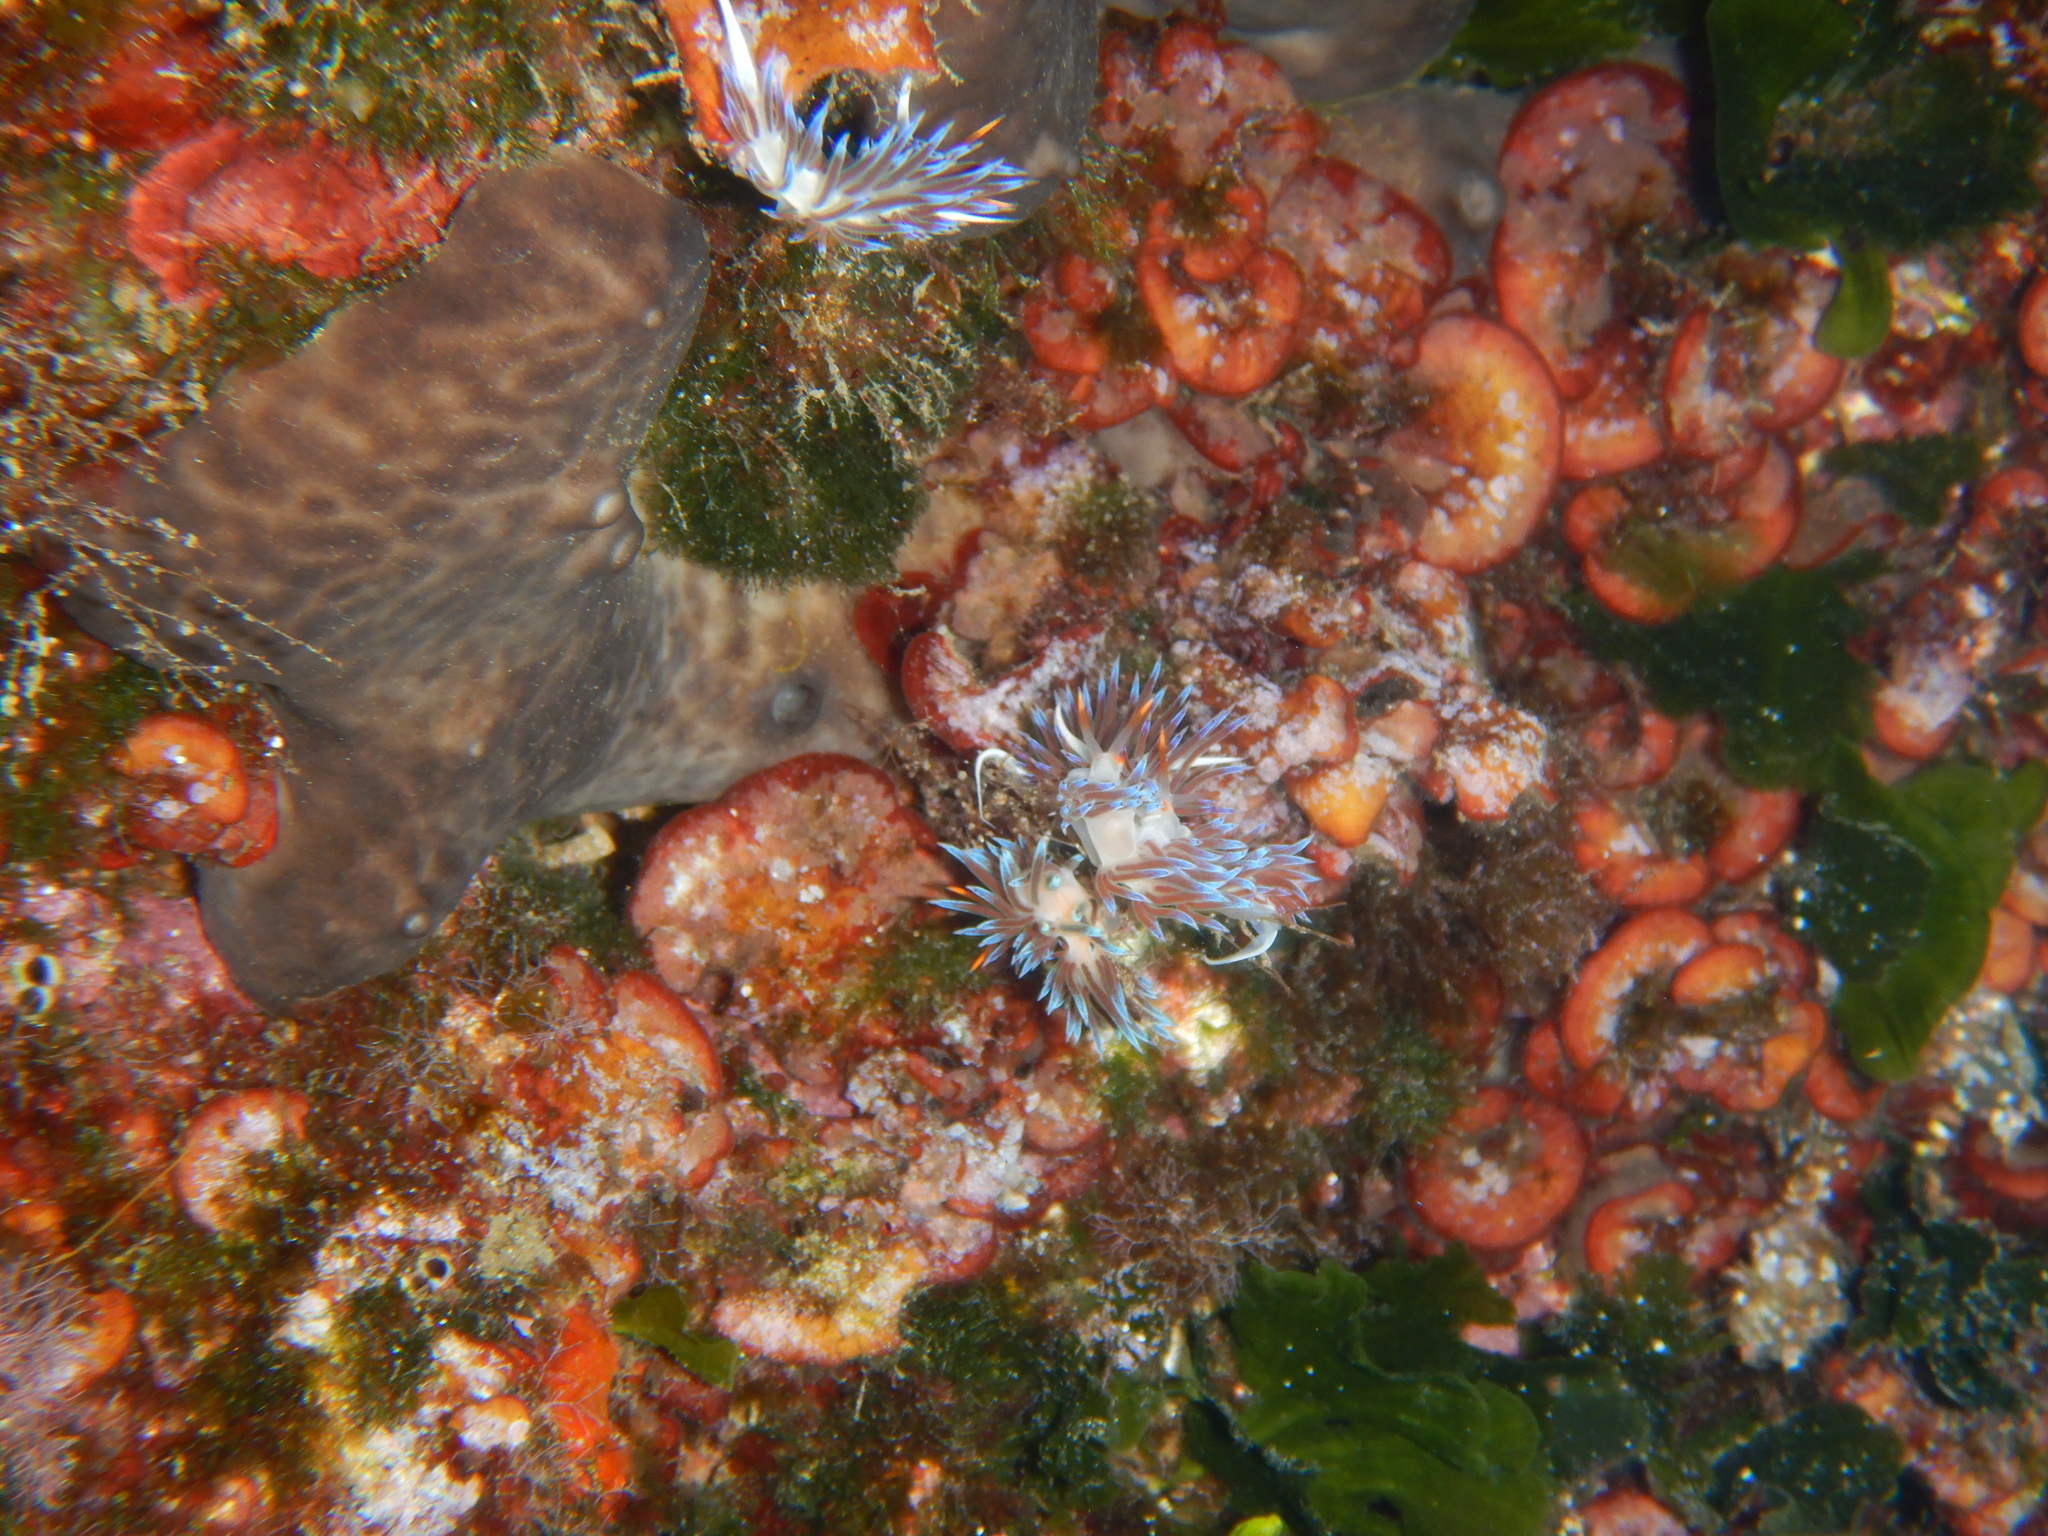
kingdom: Animalia
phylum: Mollusca
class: Gastropoda
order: Nudibranchia
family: Facelinidae
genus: Cratena
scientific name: Cratena peregrina
